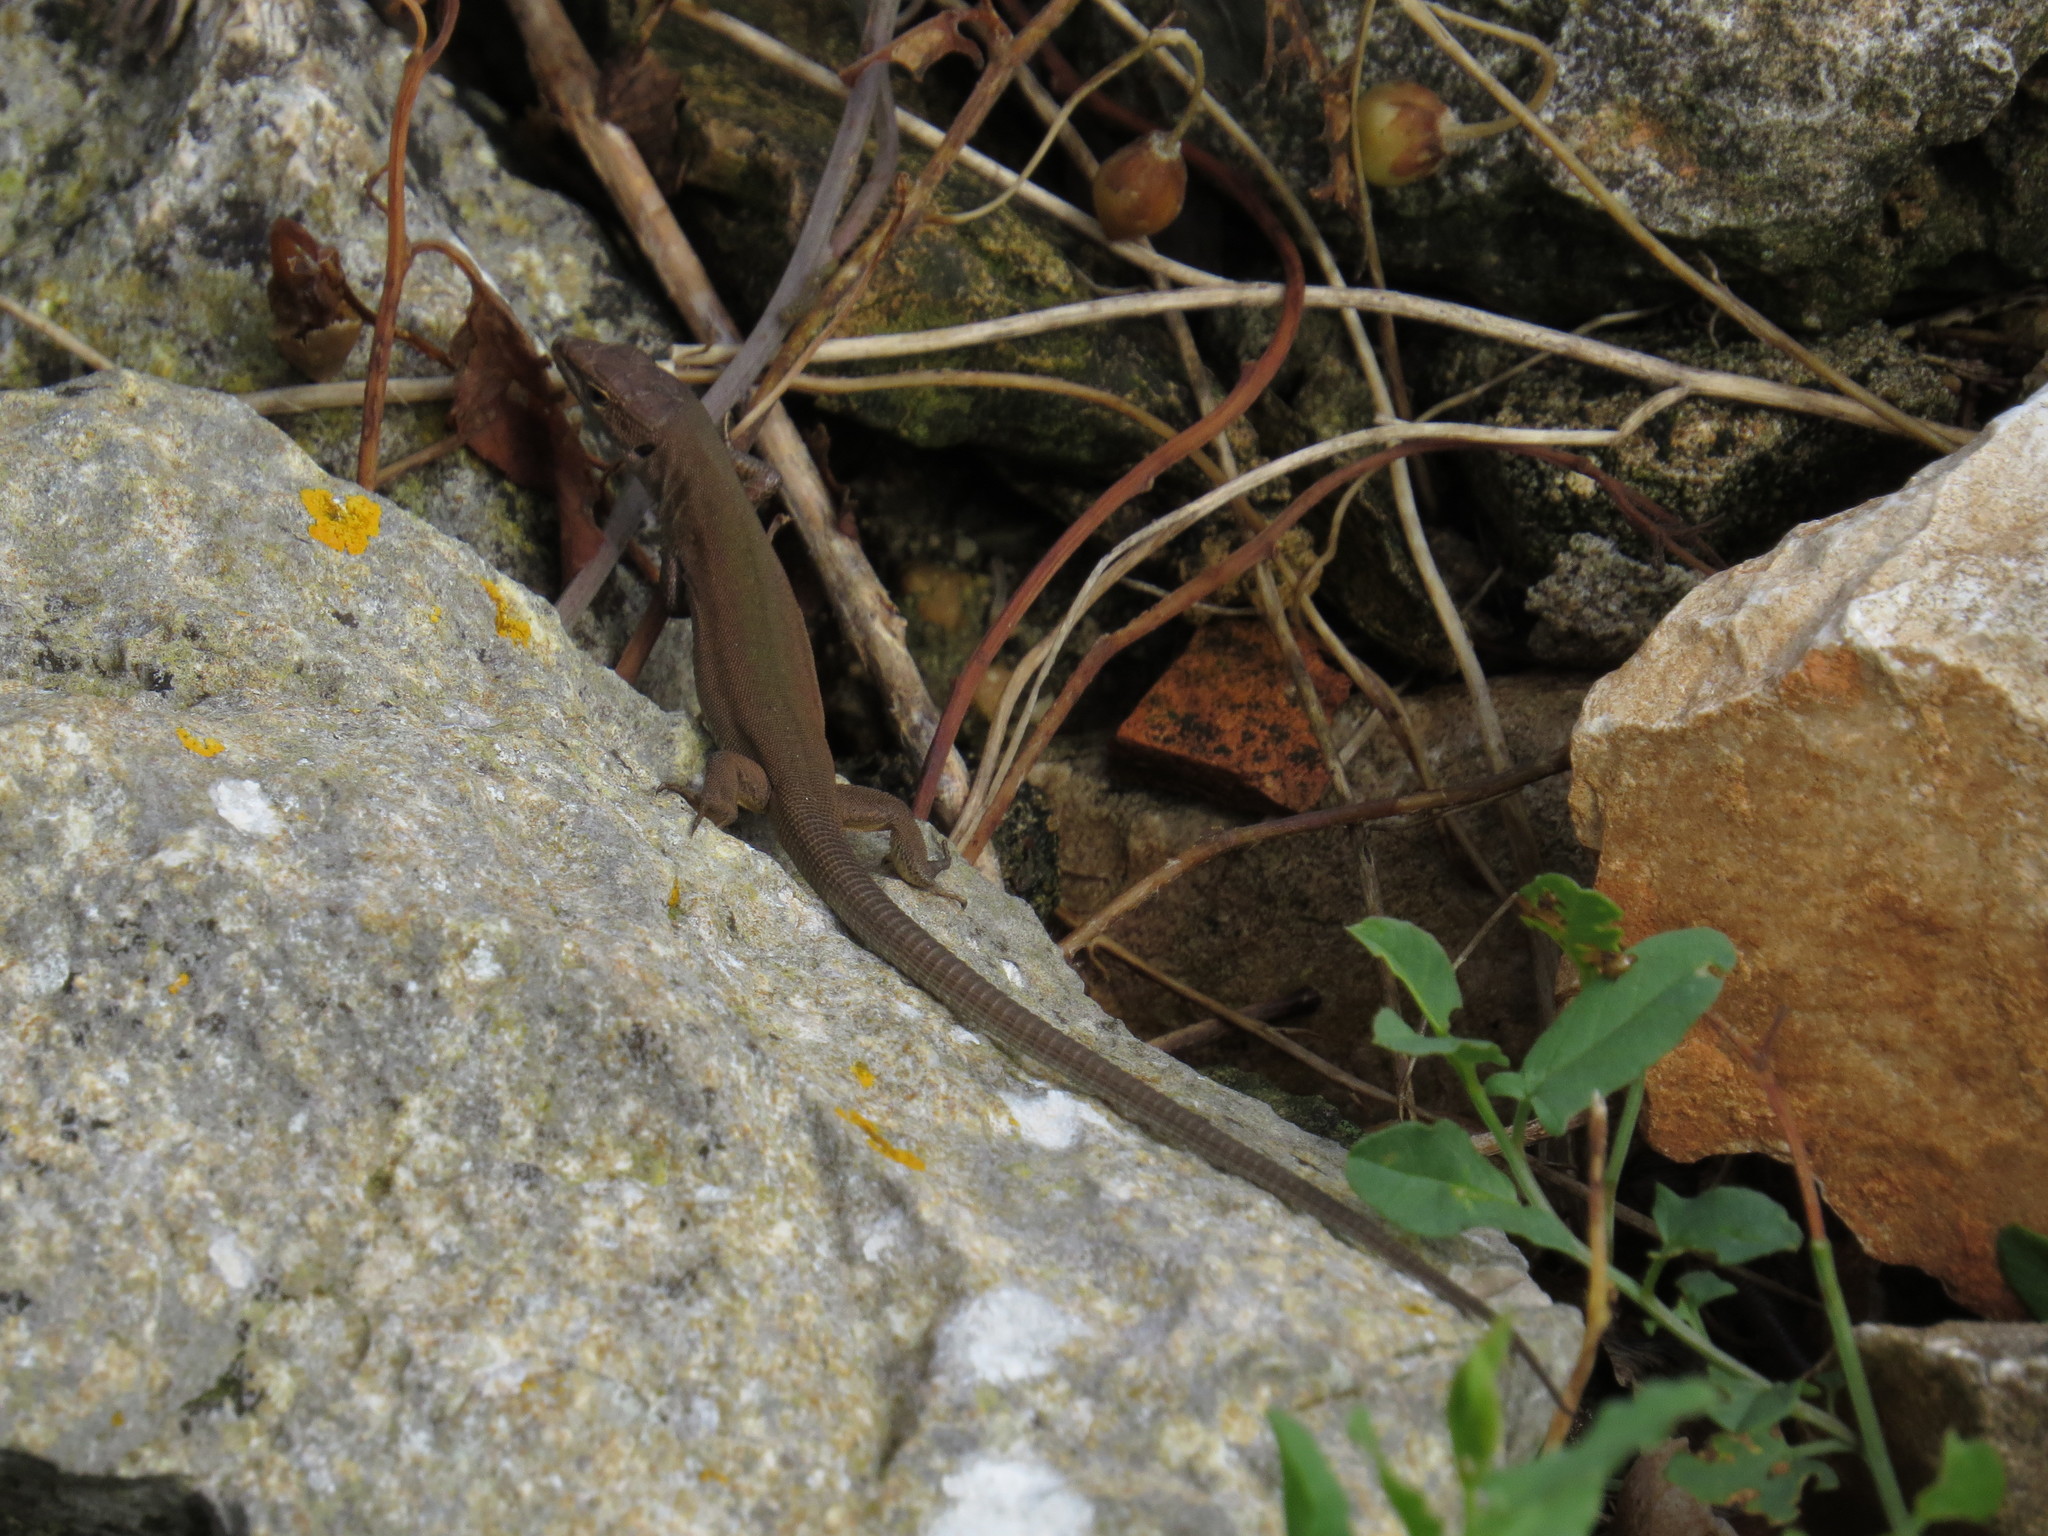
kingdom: Animalia
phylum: Chordata
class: Squamata
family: Lacertidae
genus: Podarcis
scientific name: Podarcis melisellensis
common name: Dalmatian wall lizard
